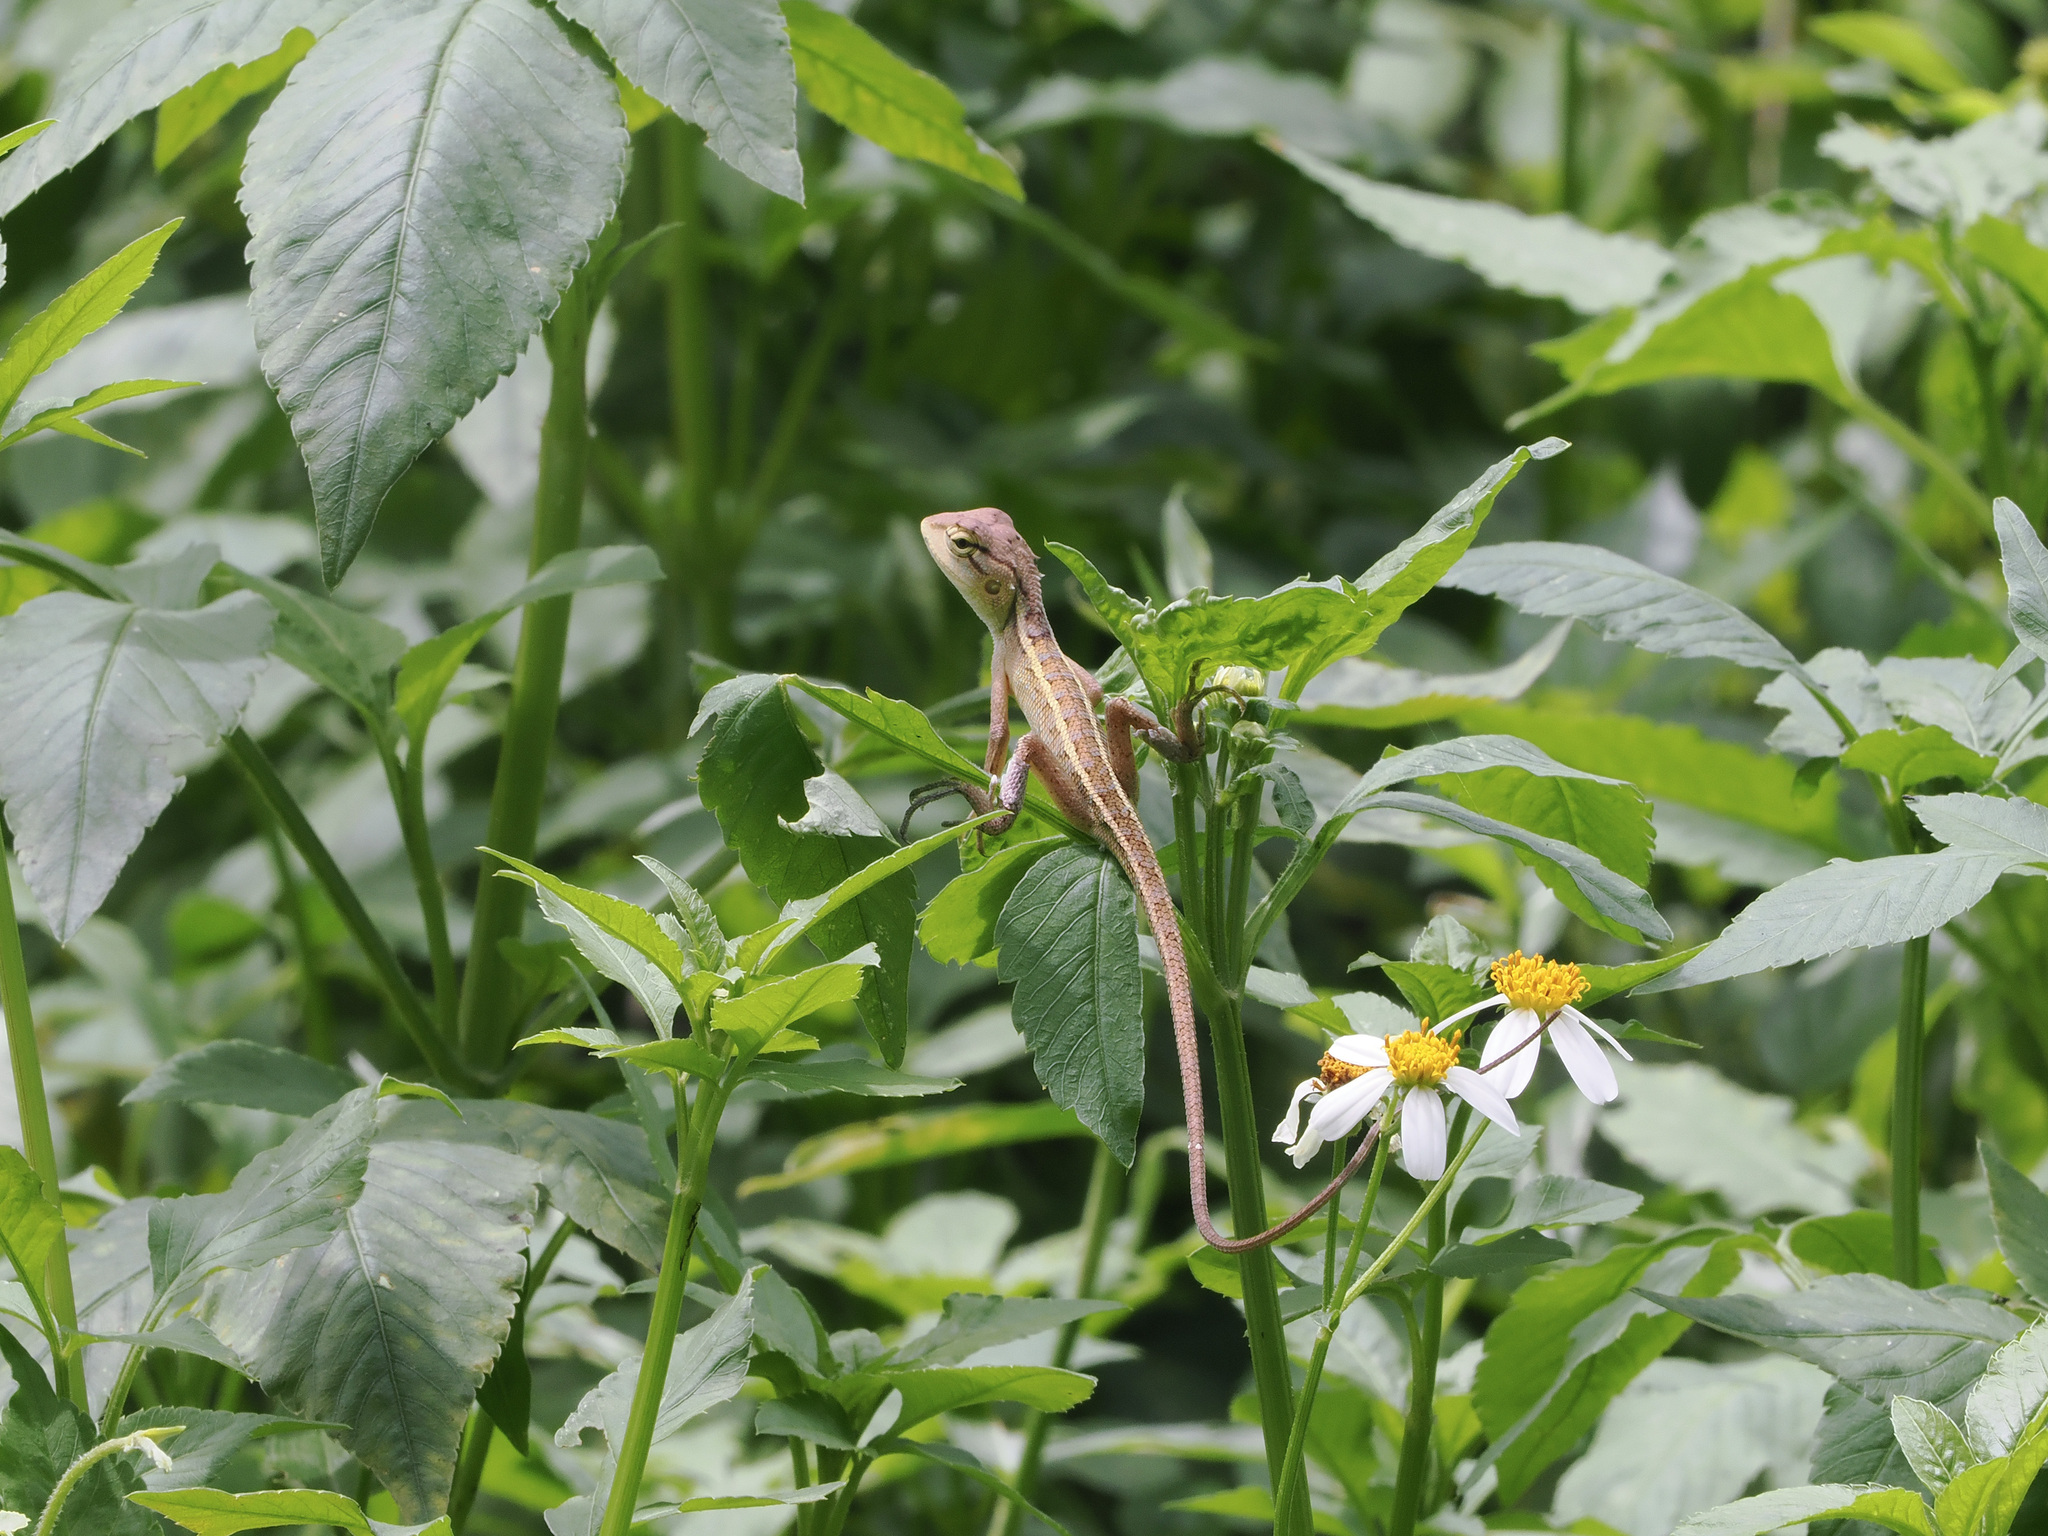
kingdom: Animalia
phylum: Chordata
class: Squamata
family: Agamidae
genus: Calotes
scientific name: Calotes versicolor
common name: Oriental garden lizard
